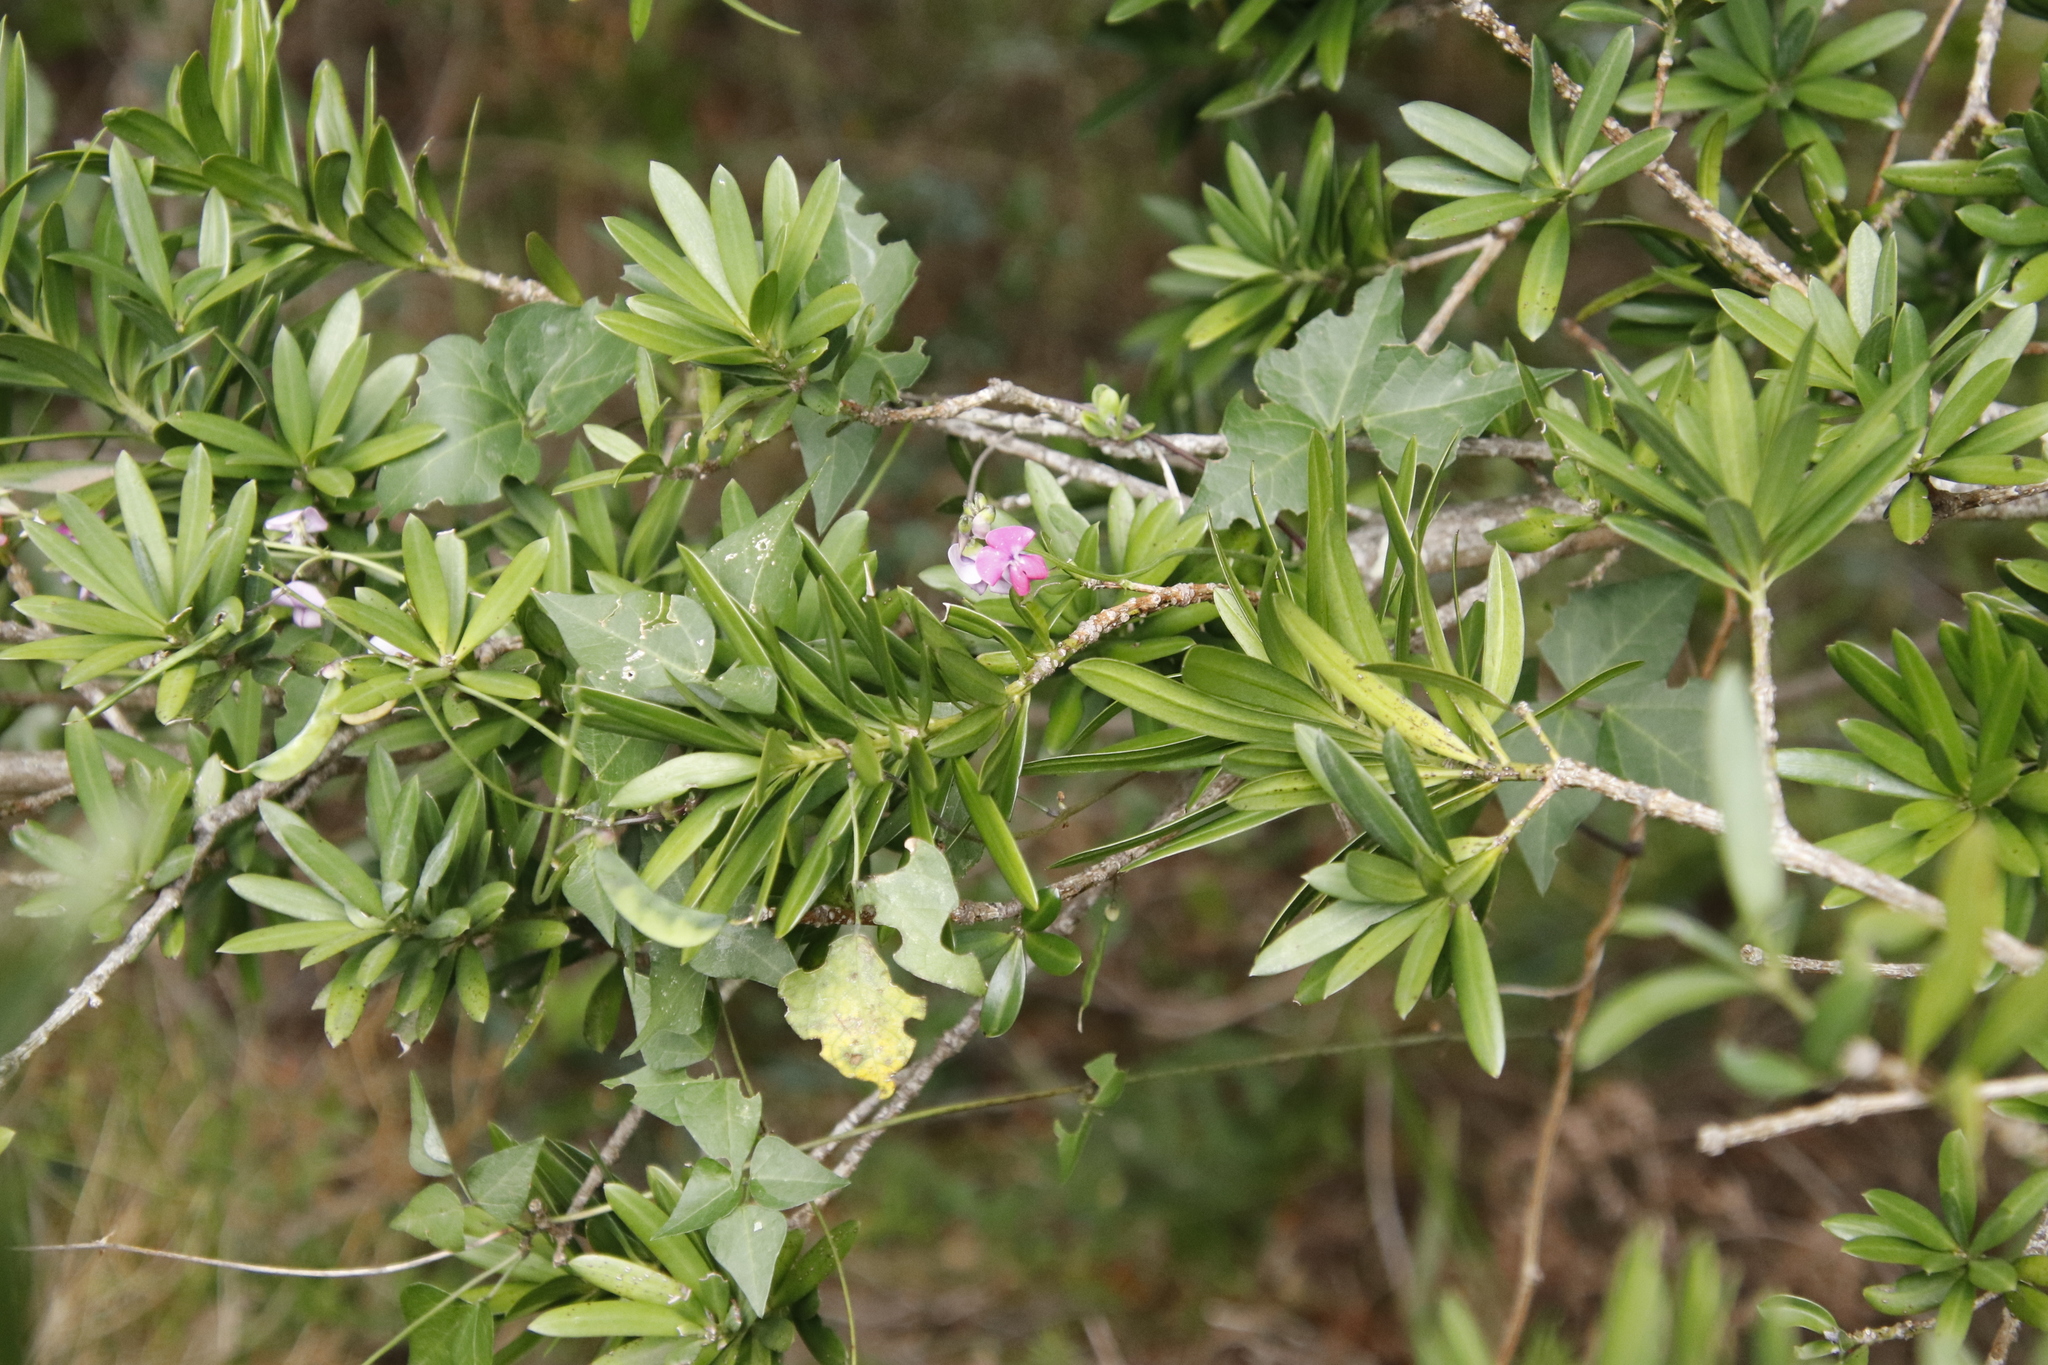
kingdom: Plantae
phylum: Tracheophyta
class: Pinopsida
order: Pinales
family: Podocarpaceae
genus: Podocarpus
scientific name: Podocarpus latifolius
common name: True yellowwood
